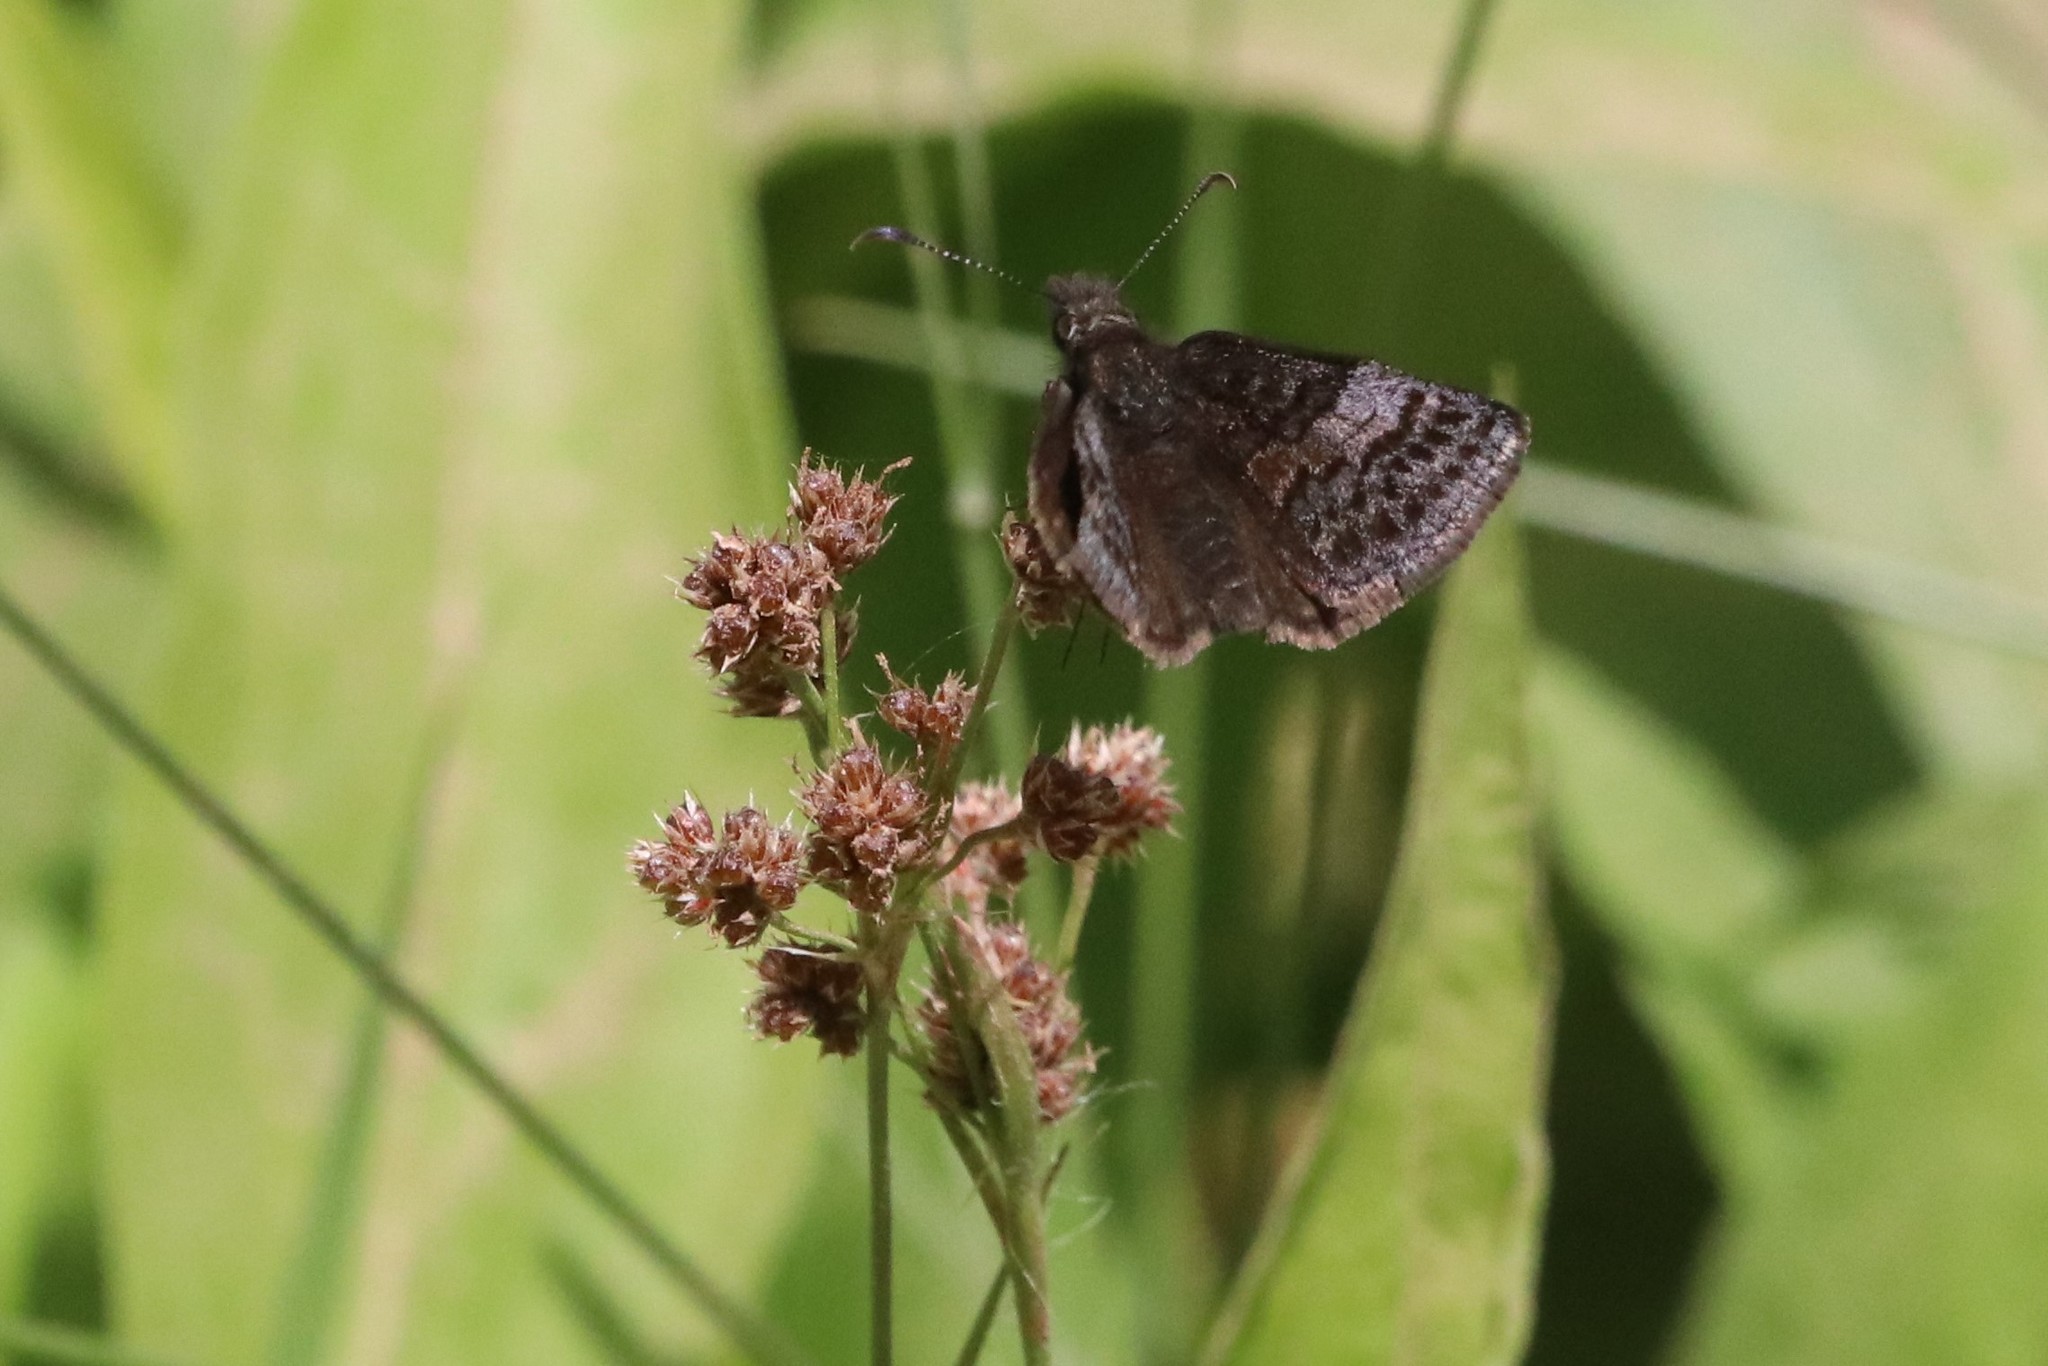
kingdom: Animalia
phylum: Arthropoda
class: Insecta
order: Lepidoptera
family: Hesperiidae
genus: Erynnis
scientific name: Erynnis icelus
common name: Dreamy duskywing
